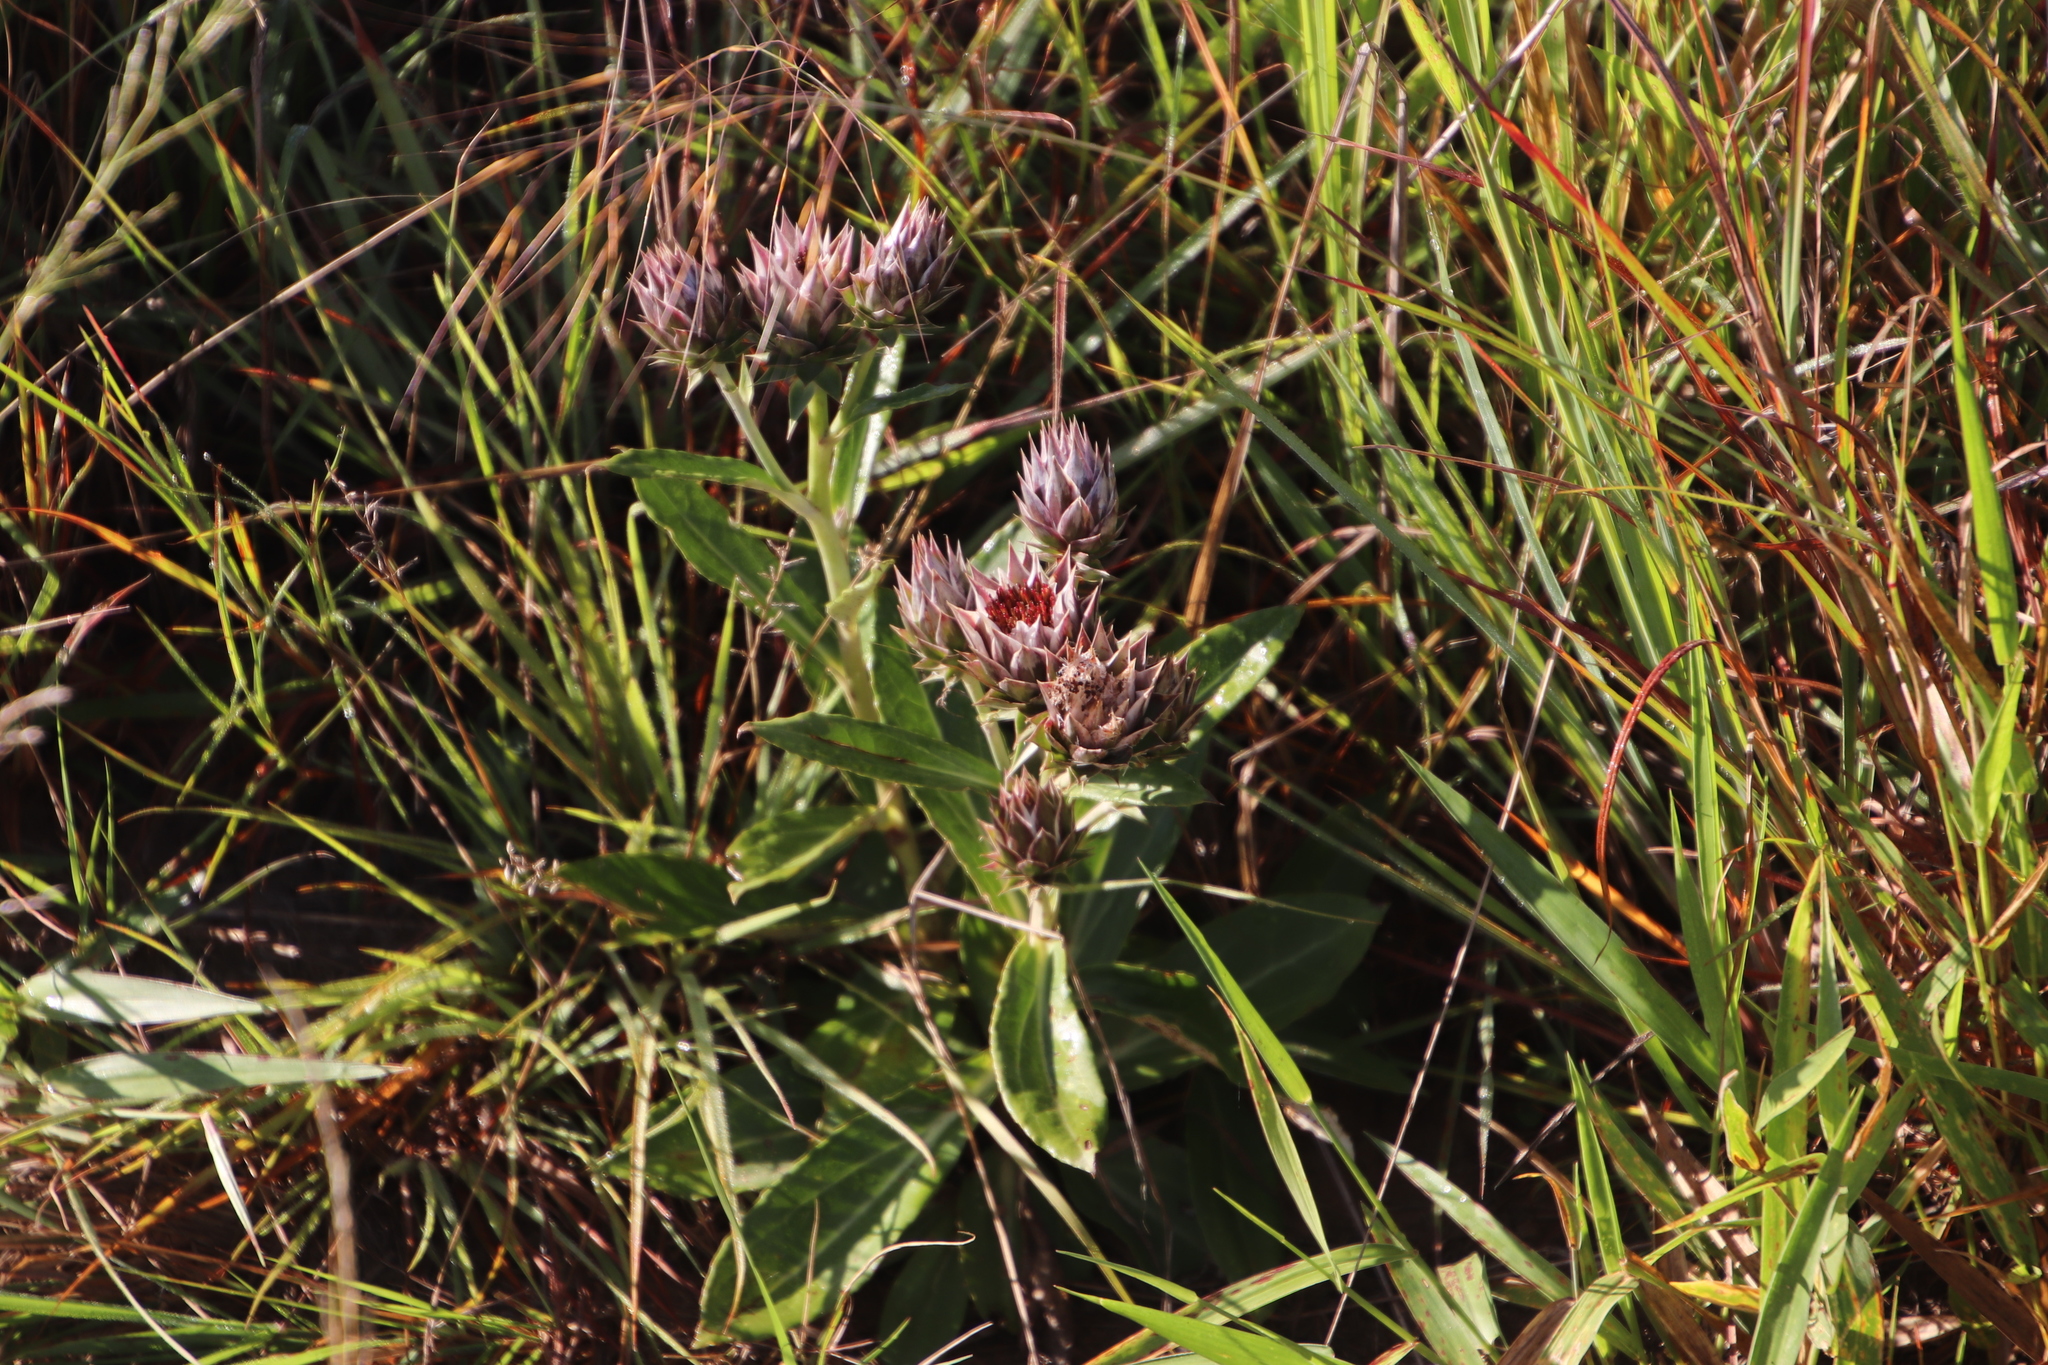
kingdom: Plantae
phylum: Tracheophyta
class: Magnoliopsida
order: Asterales
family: Asteraceae
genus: Macledium
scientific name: Macledium zeyheri
